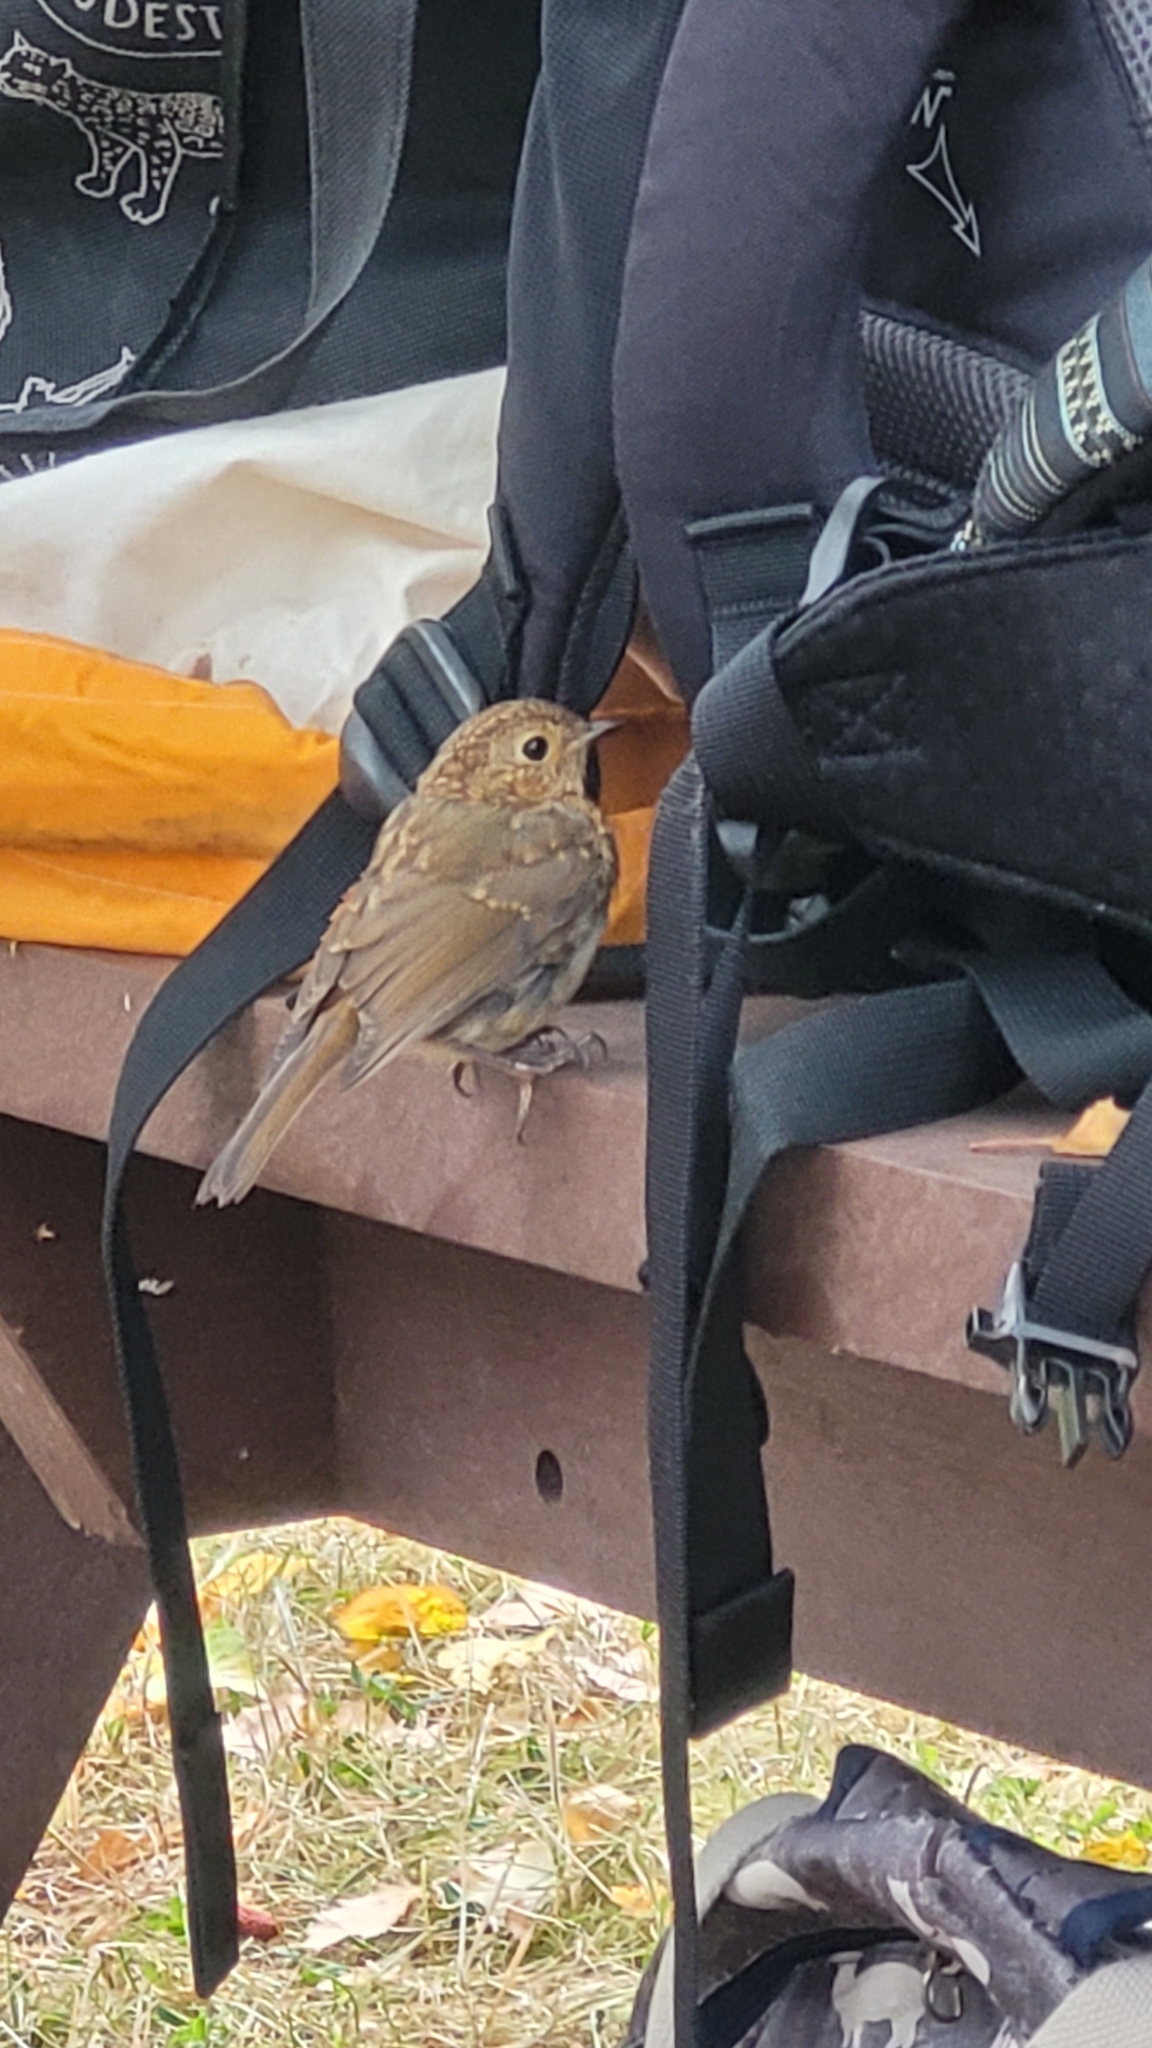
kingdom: Animalia
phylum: Chordata
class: Aves
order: Passeriformes
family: Muscicapidae
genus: Erithacus
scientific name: Erithacus rubecula
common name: European robin
